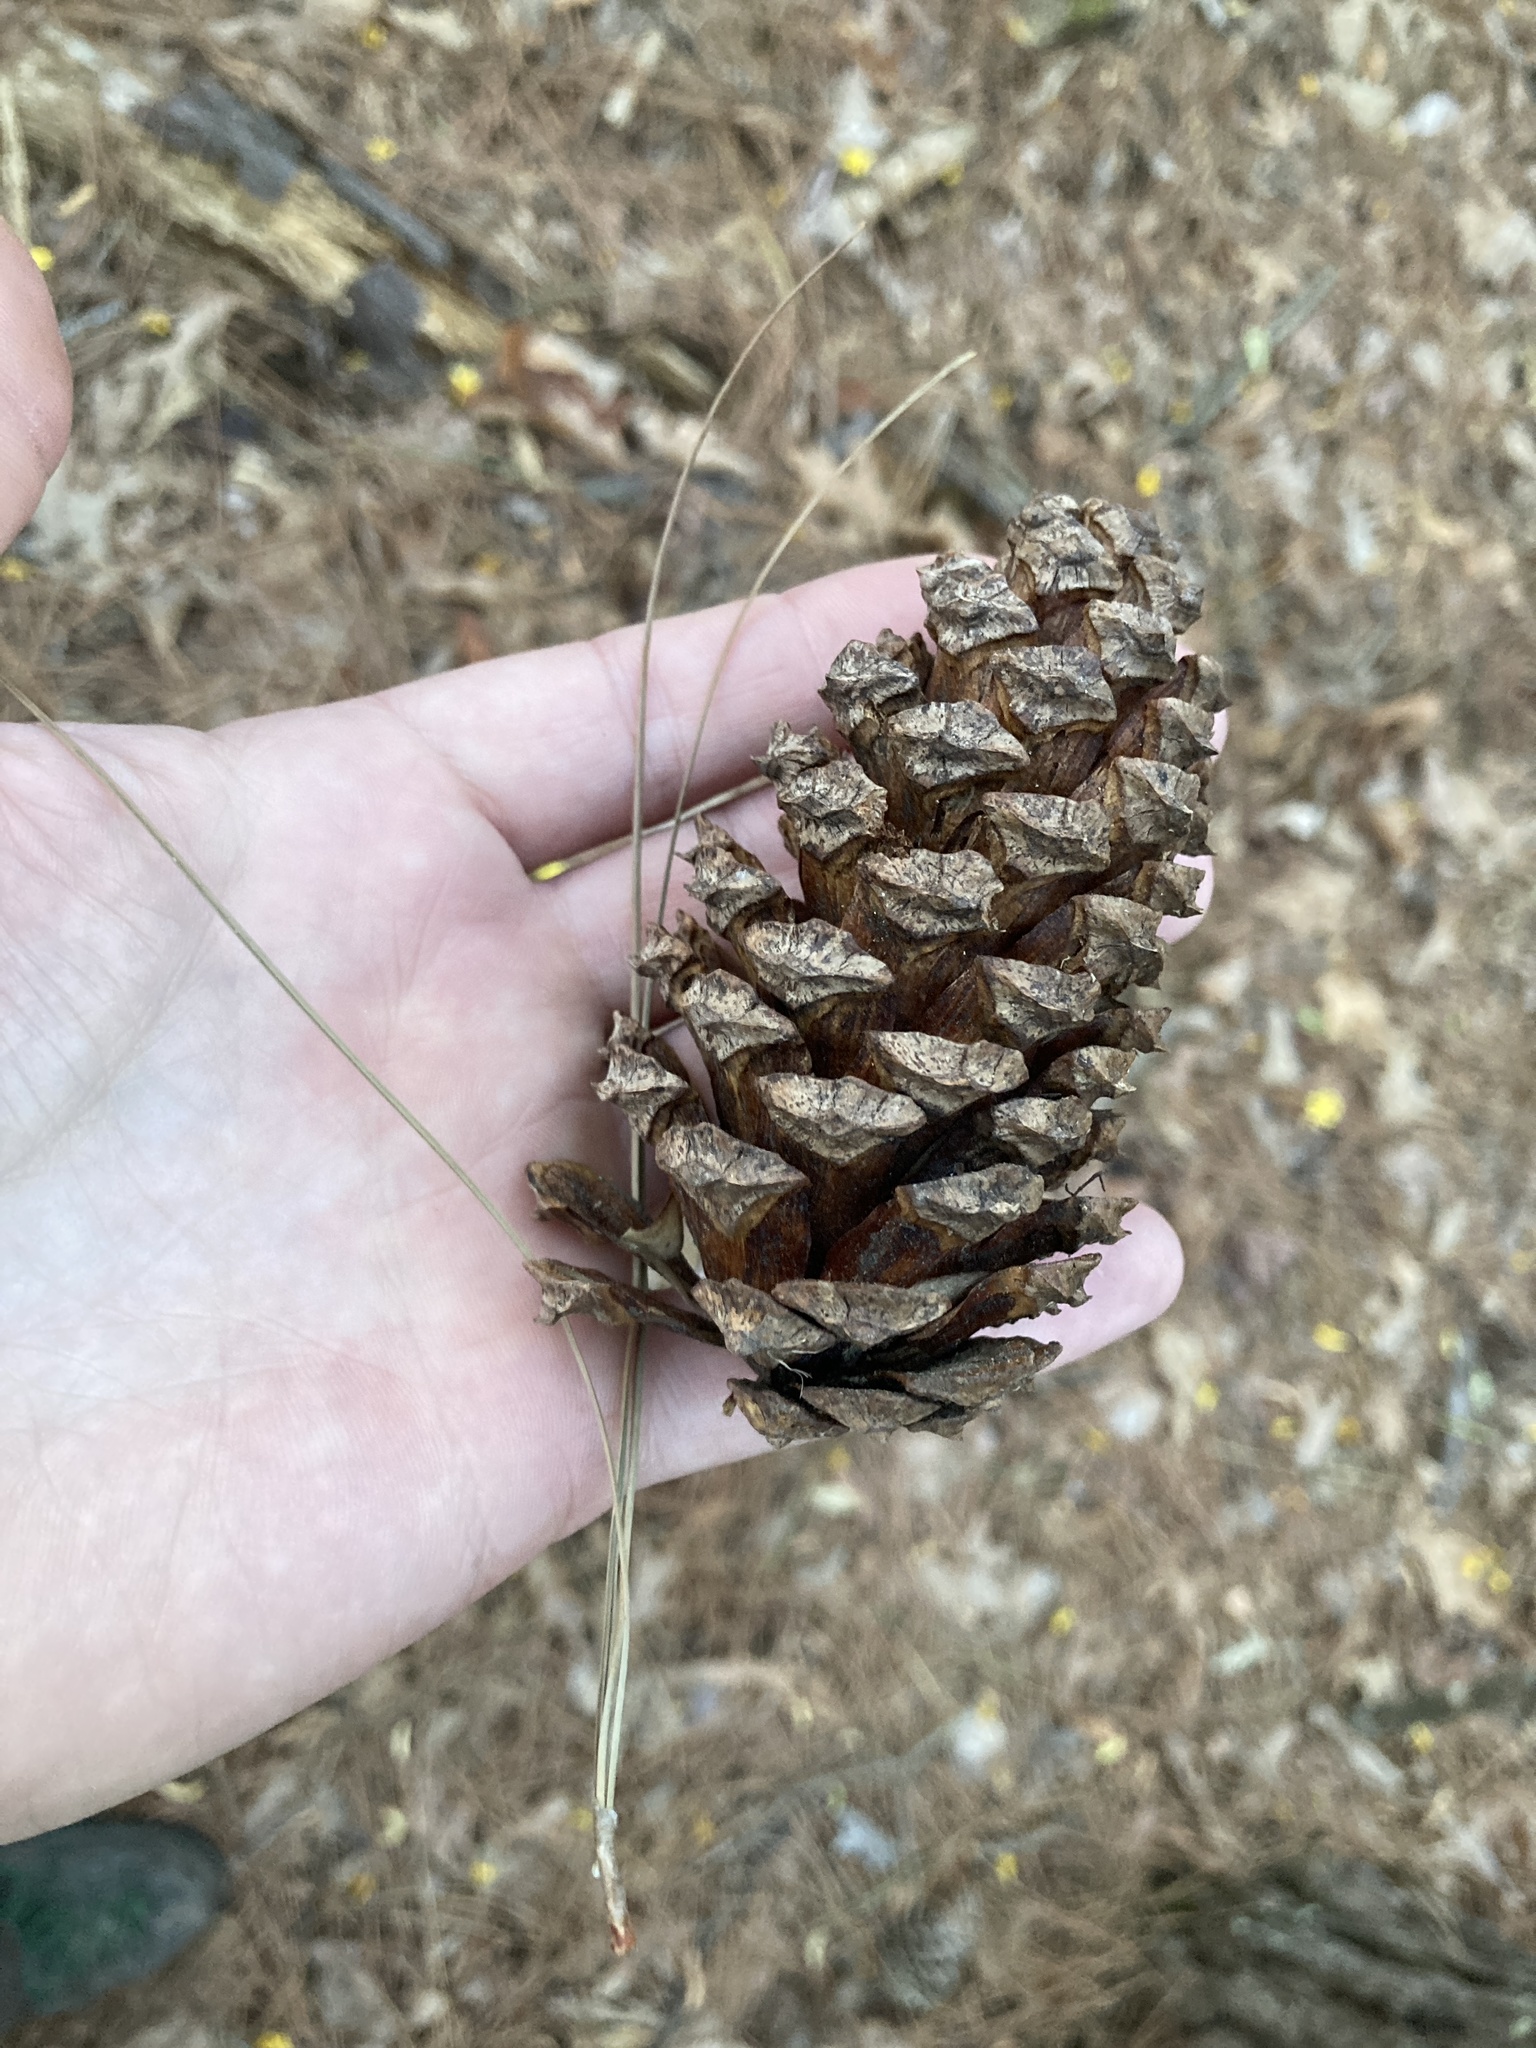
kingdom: Plantae
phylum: Tracheophyta
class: Pinopsida
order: Pinales
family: Pinaceae
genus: Pinus
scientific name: Pinus taeda
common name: Loblolly pine
